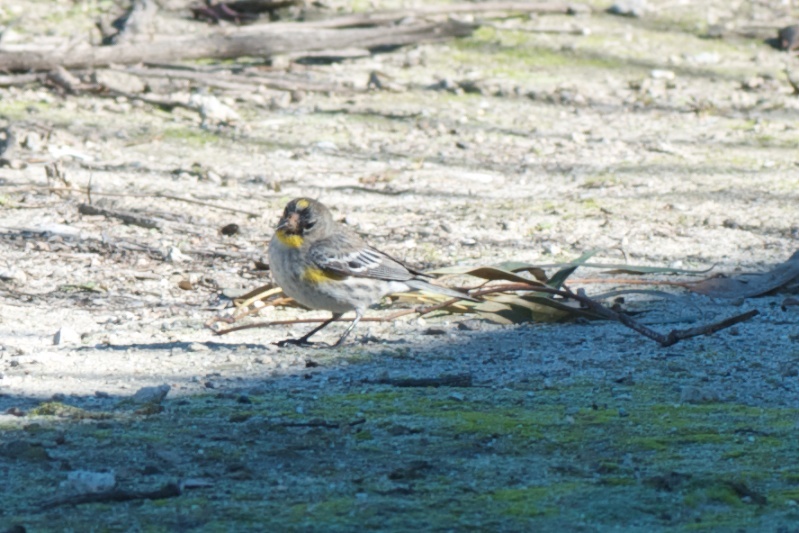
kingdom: Animalia
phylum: Chordata
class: Aves
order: Passeriformes
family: Parulidae
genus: Setophaga
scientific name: Setophaga coronata
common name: Myrtle warbler
